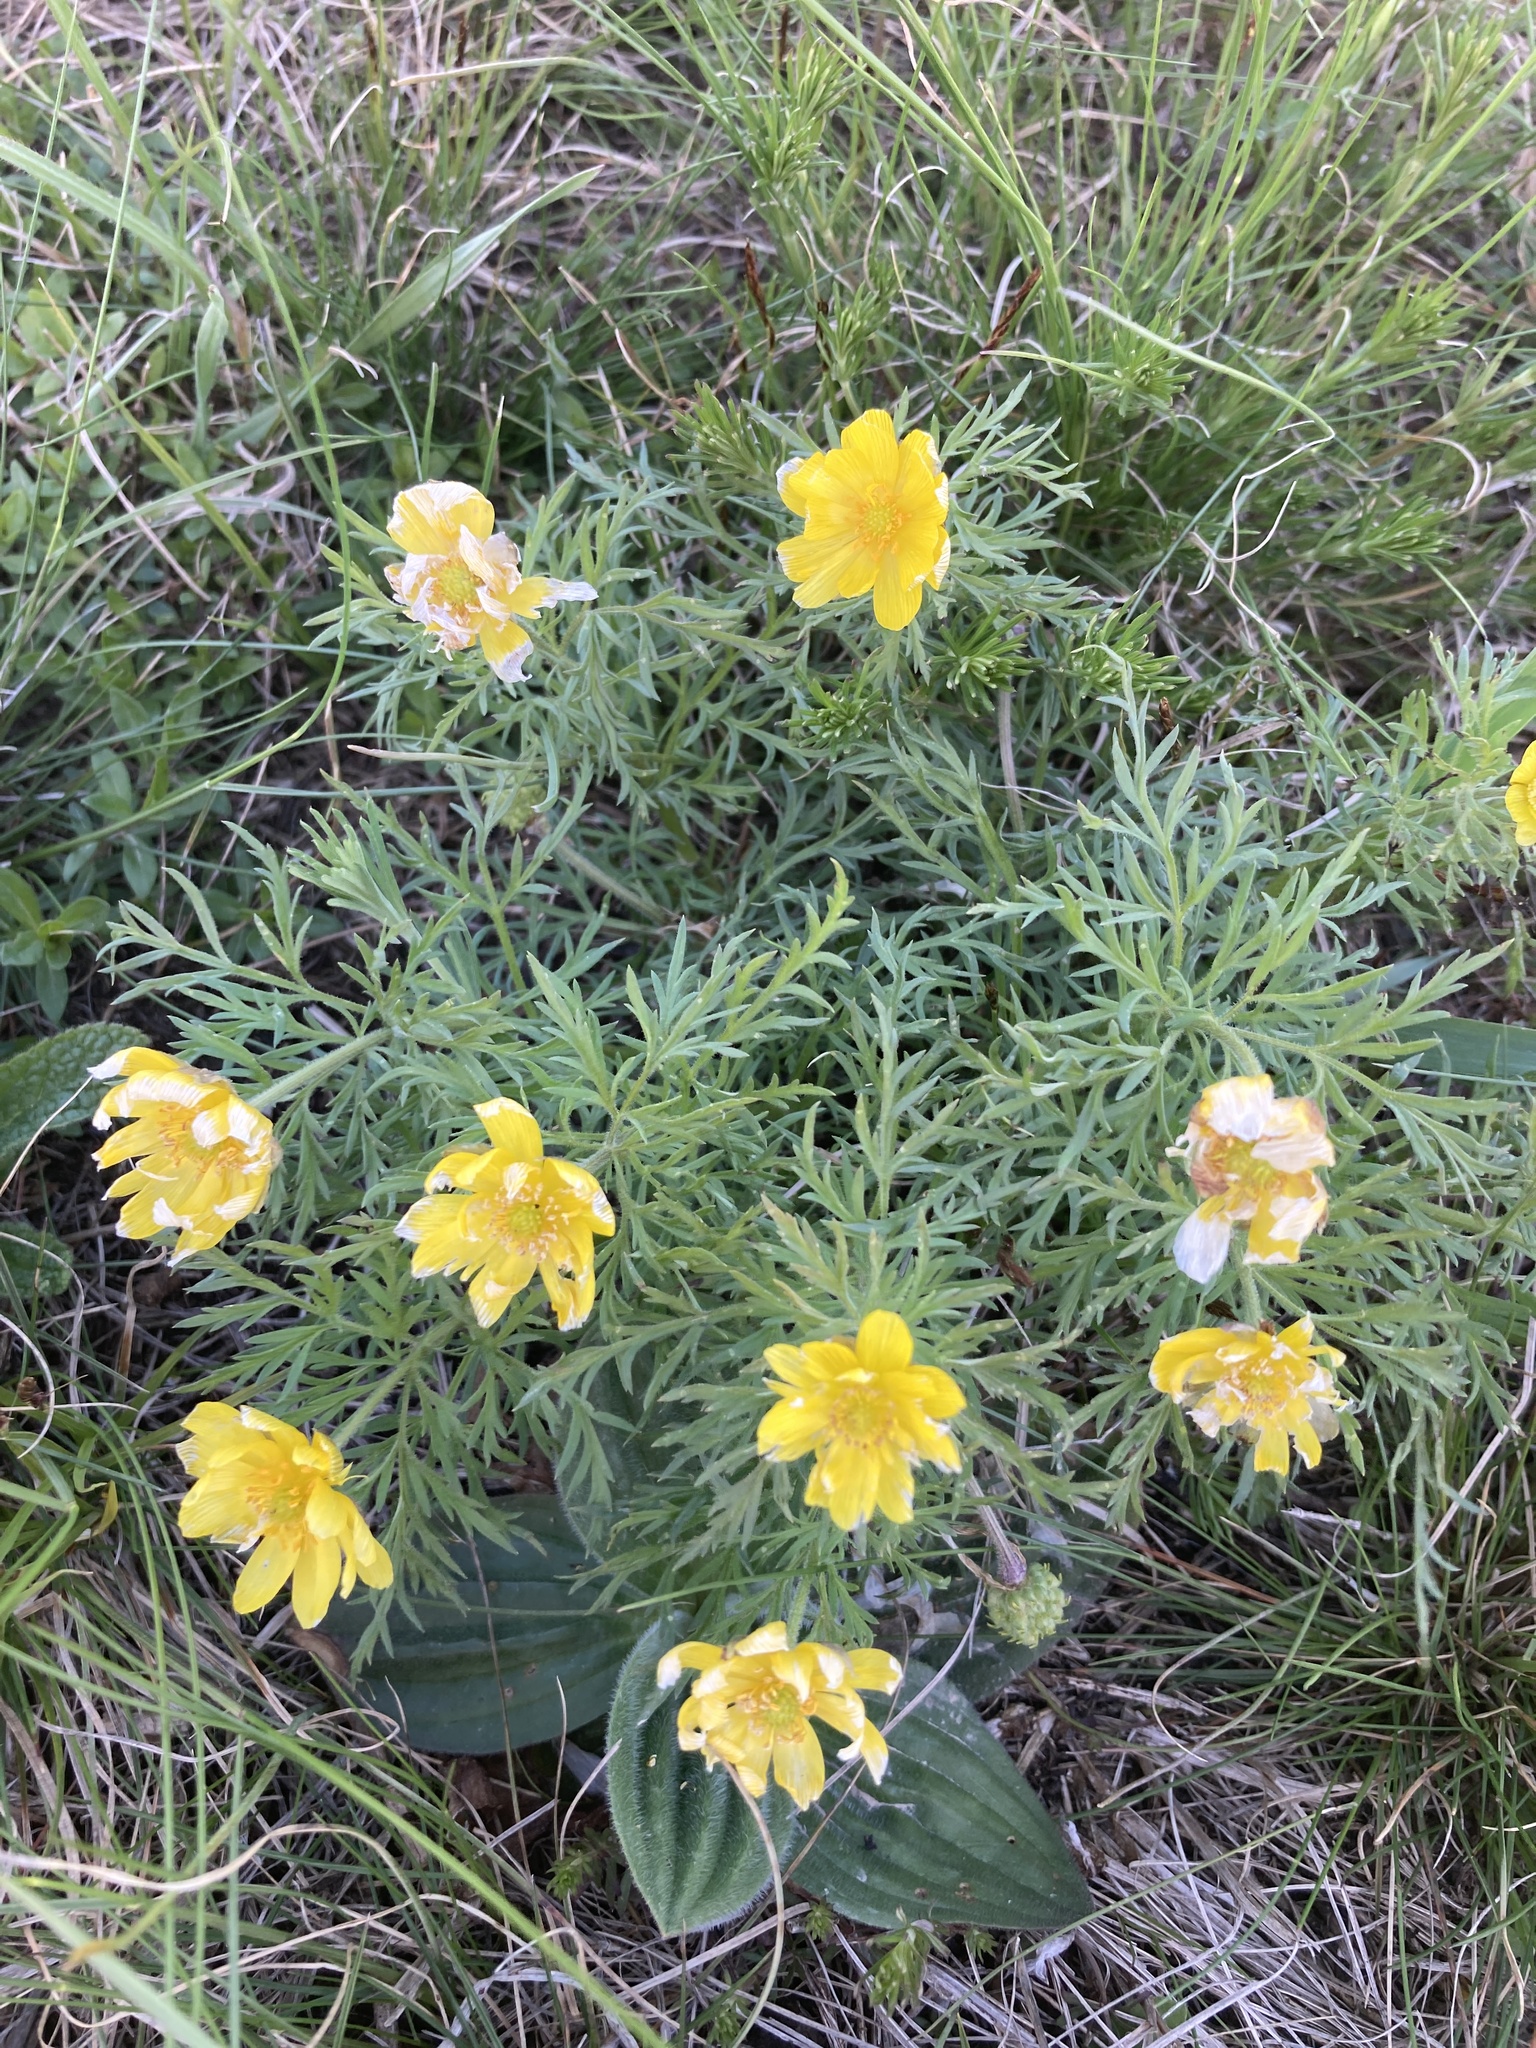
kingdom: Plantae
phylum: Tracheophyta
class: Magnoliopsida
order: Ranunculales
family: Ranunculaceae
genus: Adonis
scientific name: Adonis volgensis
